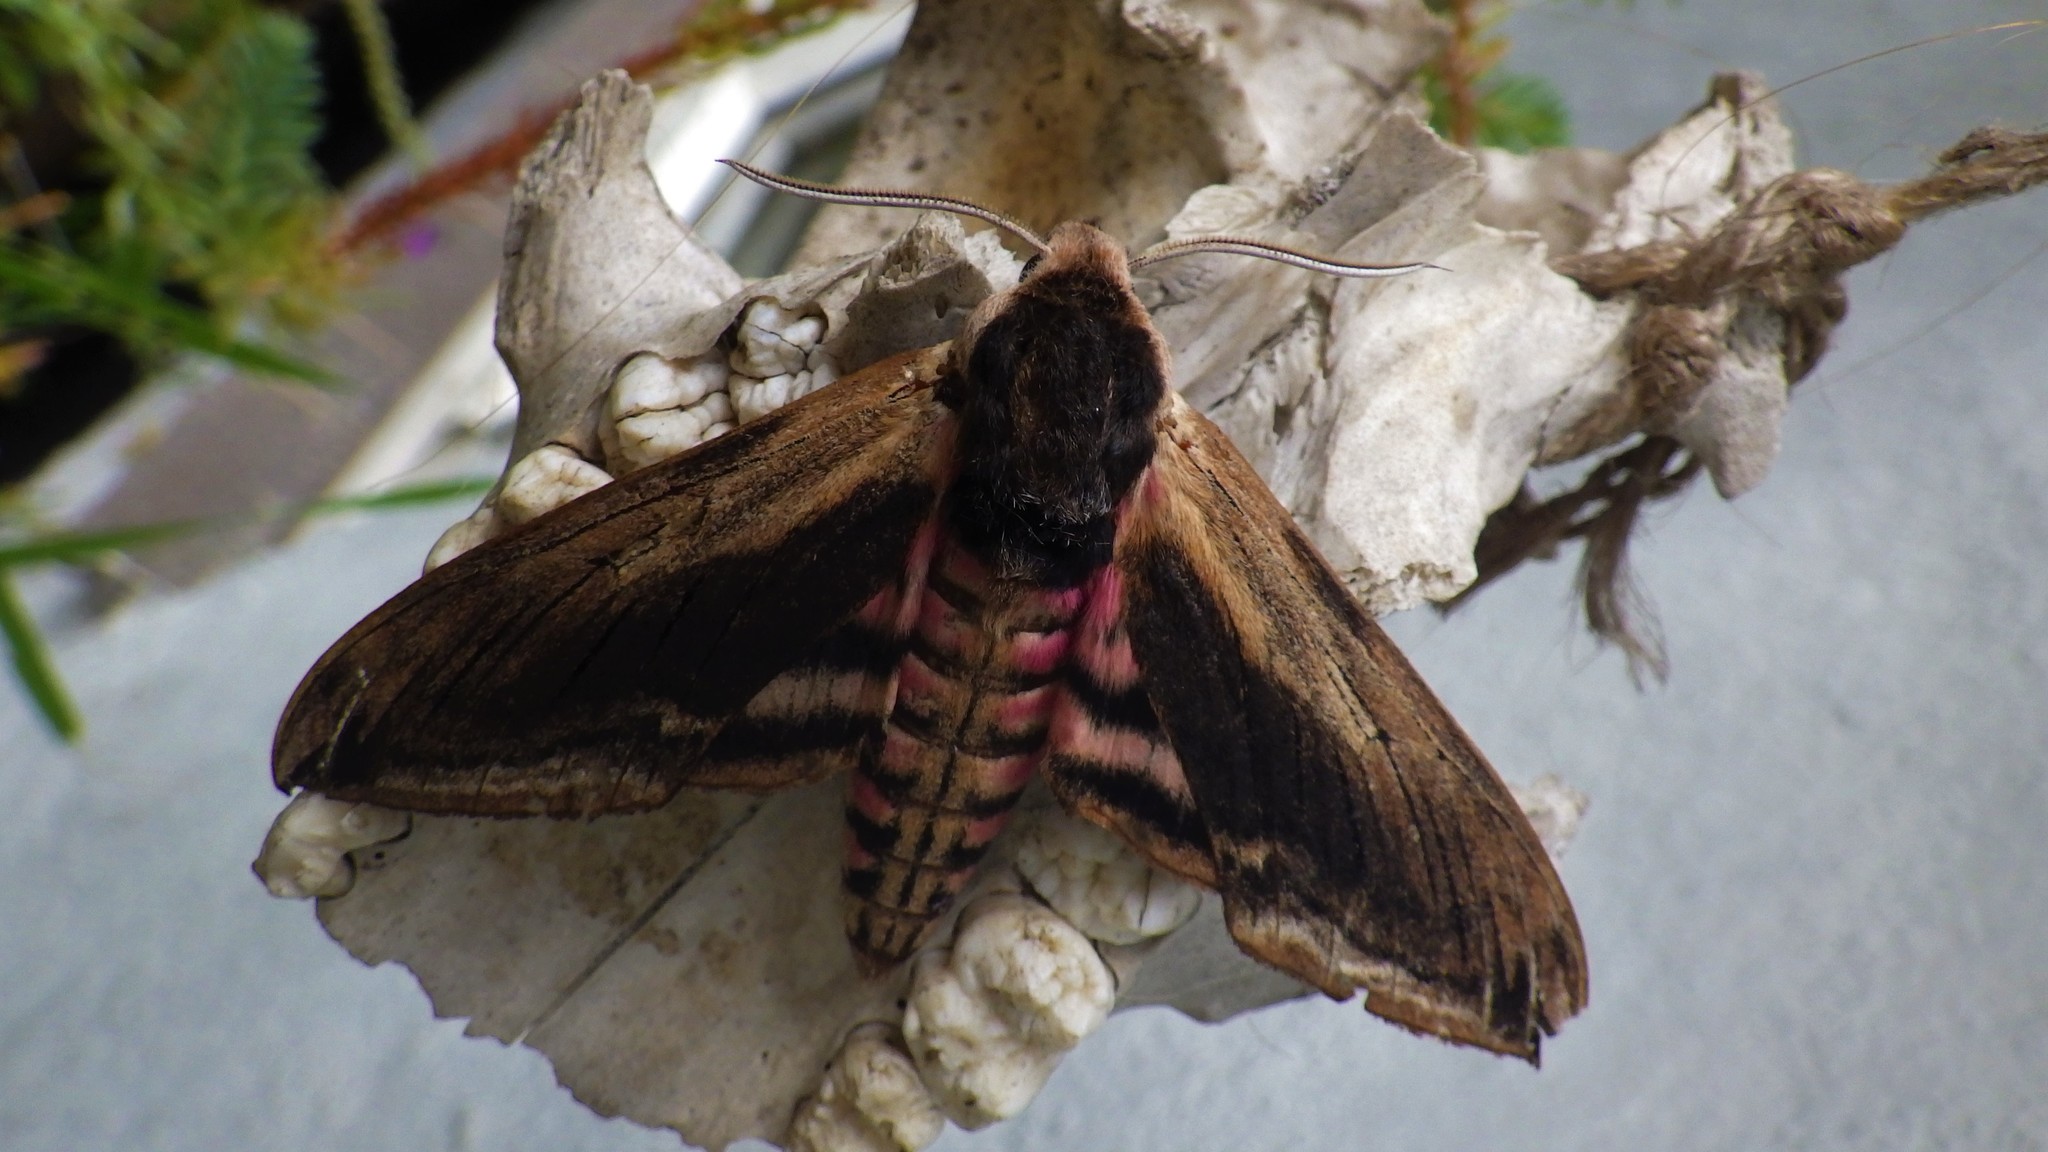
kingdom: Animalia
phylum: Arthropoda
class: Insecta
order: Lepidoptera
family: Sphingidae
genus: Sphinx
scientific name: Sphinx ligustri
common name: Privet hawk-moth
